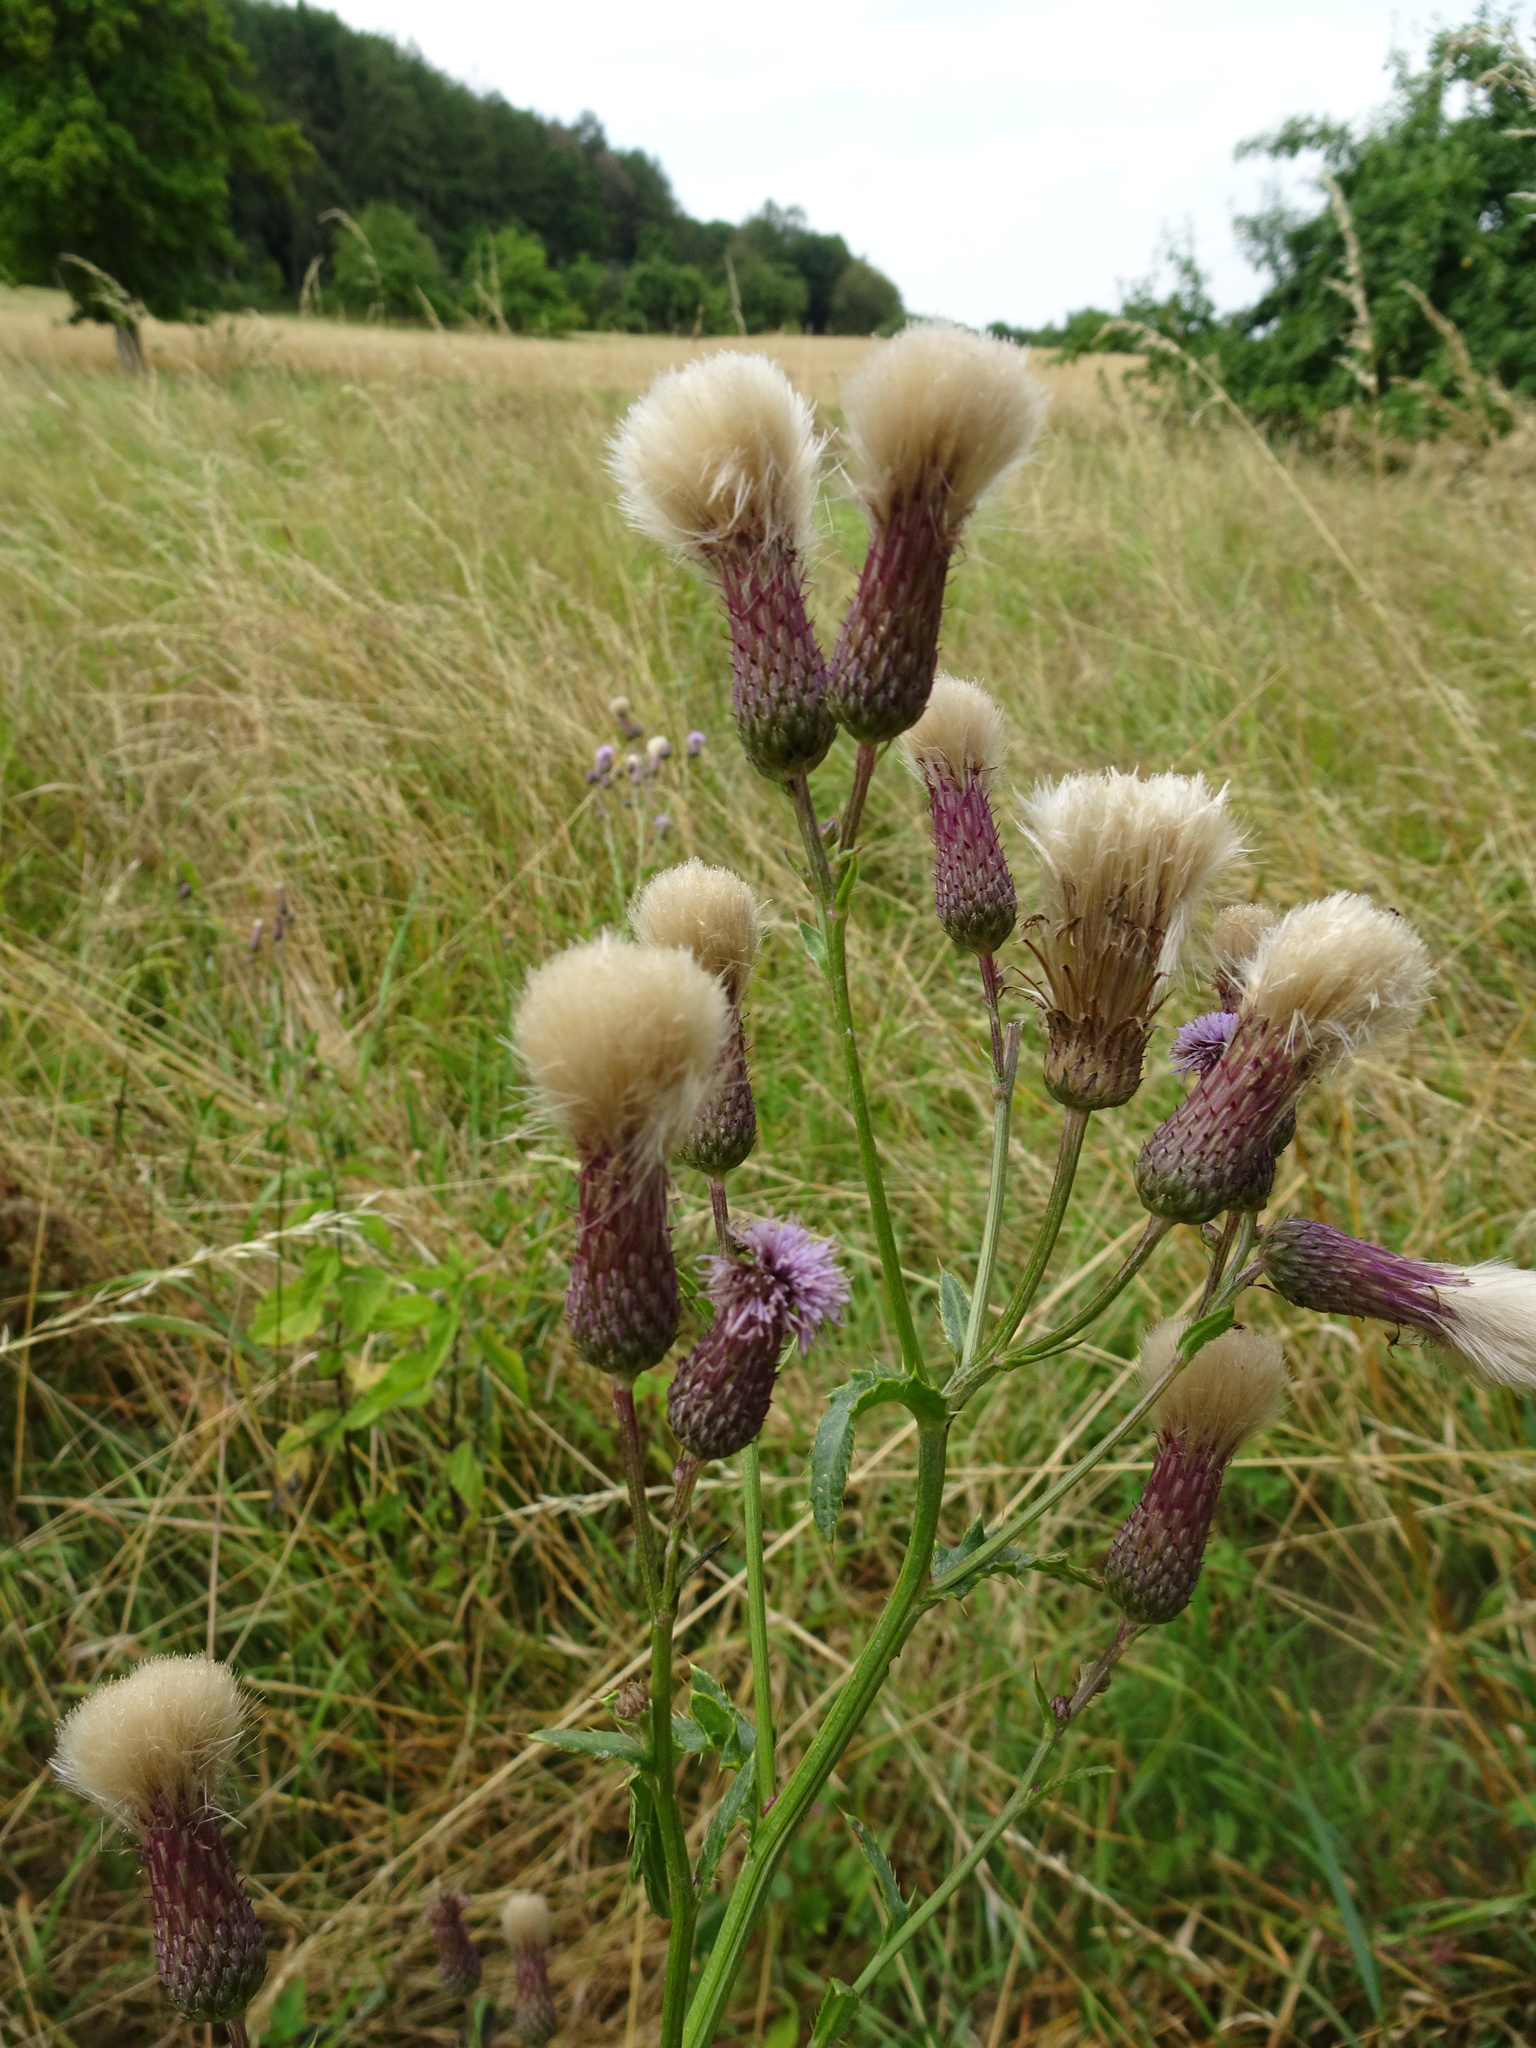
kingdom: Plantae
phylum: Tracheophyta
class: Magnoliopsida
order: Asterales
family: Asteraceae
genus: Cirsium
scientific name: Cirsium arvense
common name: Creeping thistle
